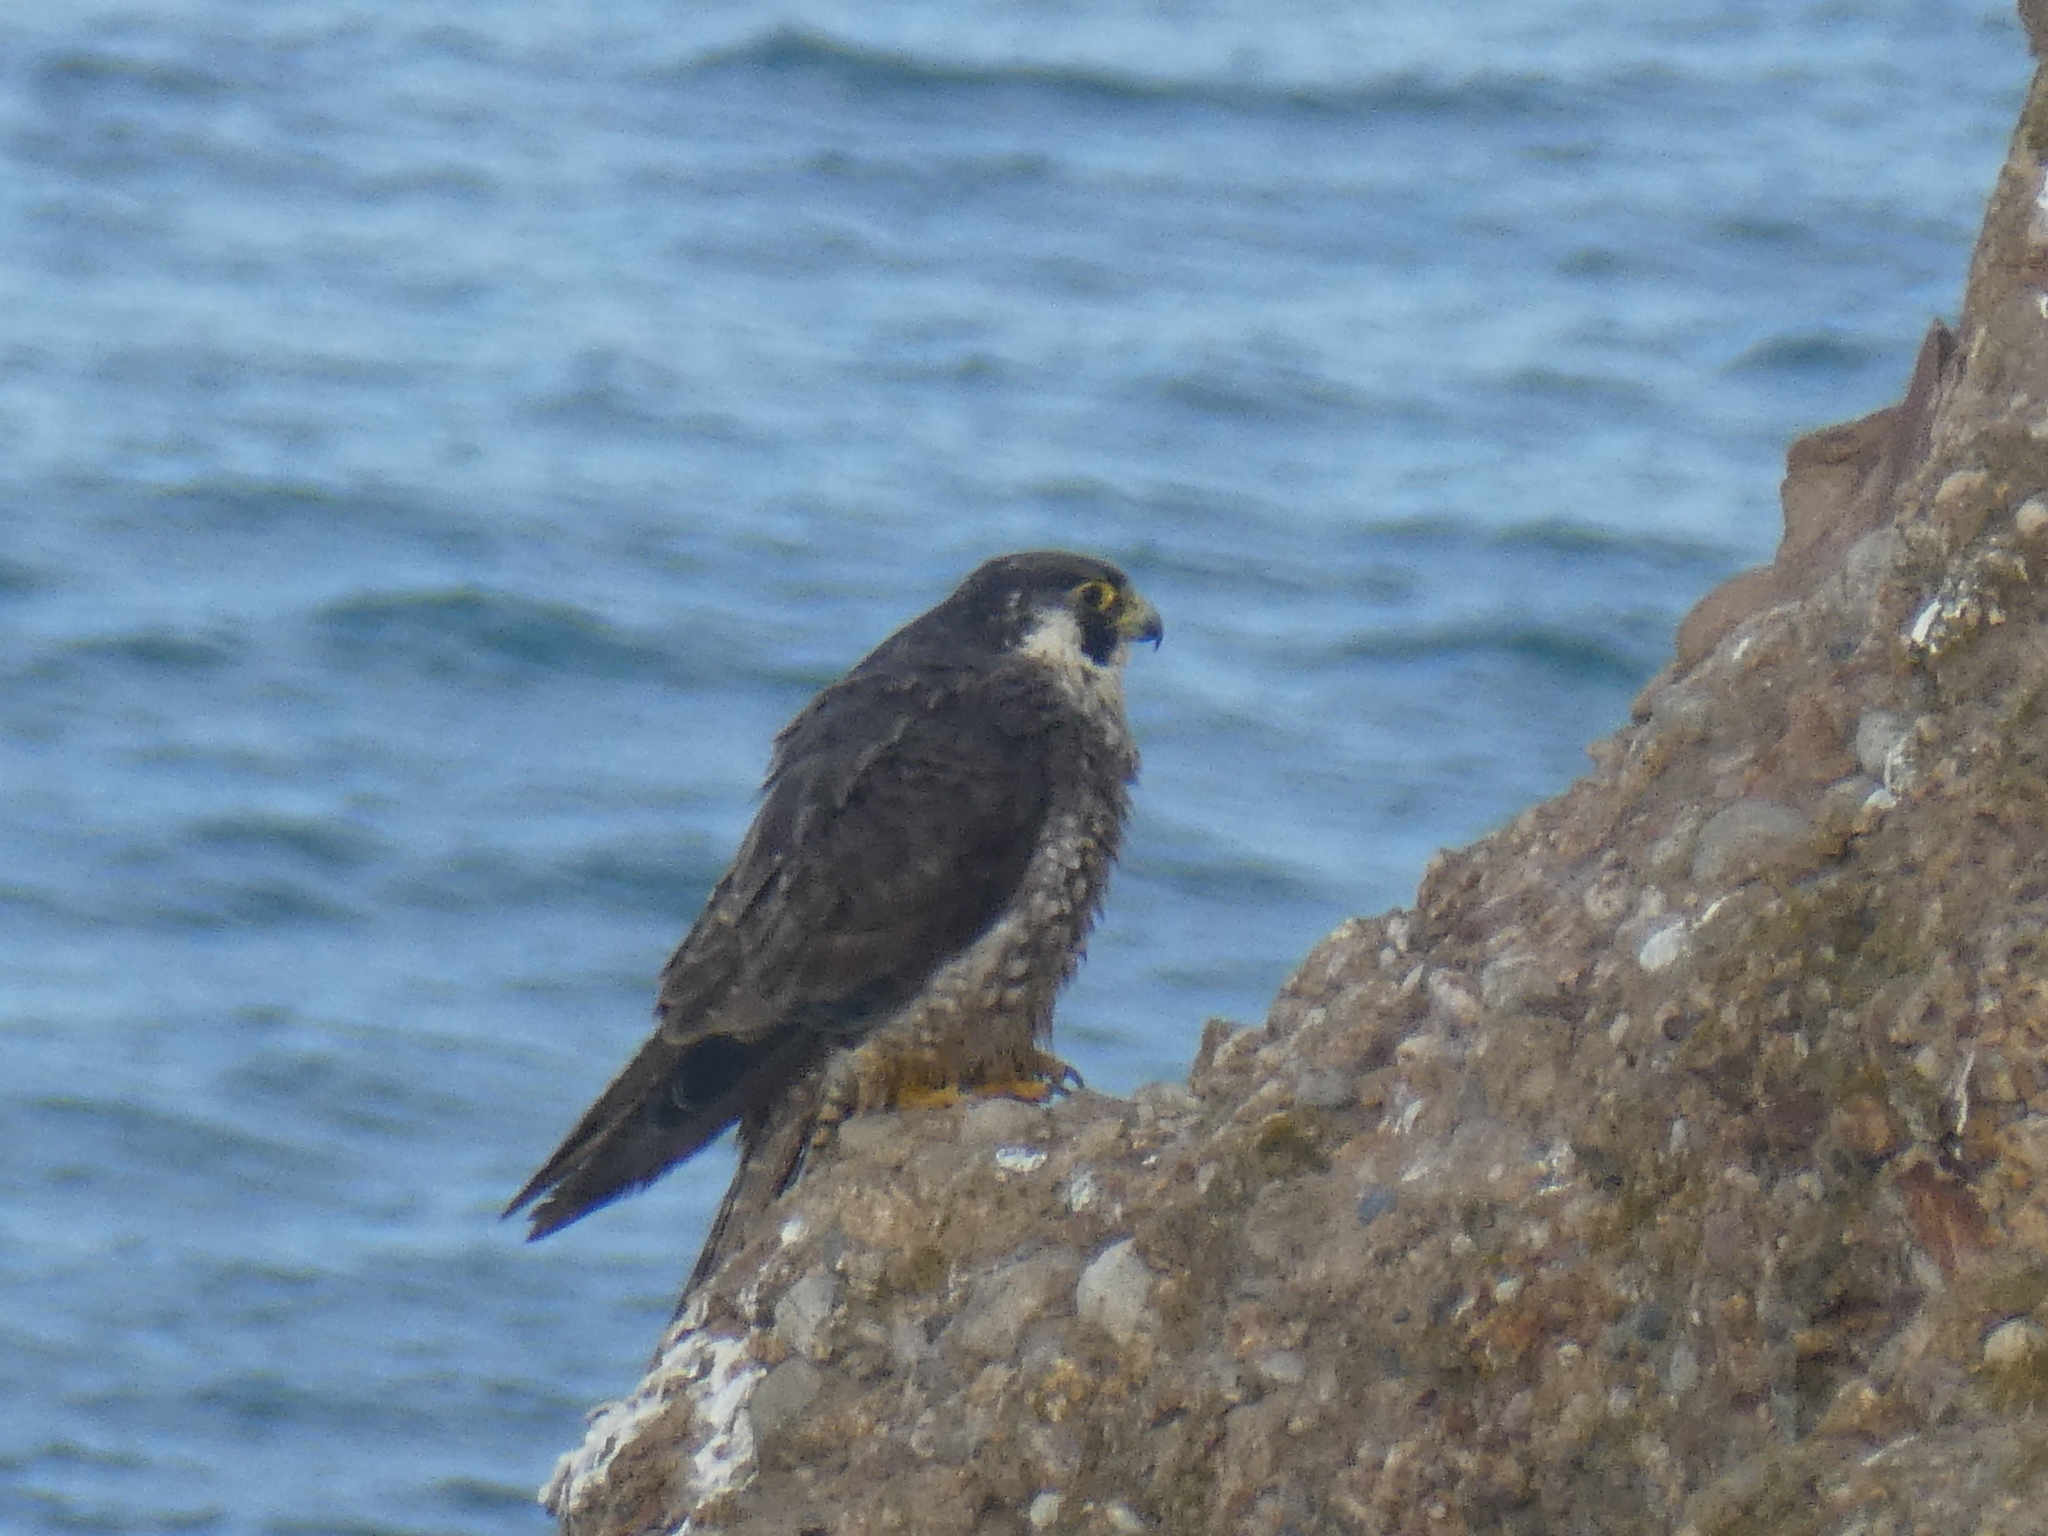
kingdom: Animalia
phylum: Chordata
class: Aves
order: Falconiformes
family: Falconidae
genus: Falco
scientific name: Falco peregrinus
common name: Peregrine falcon
